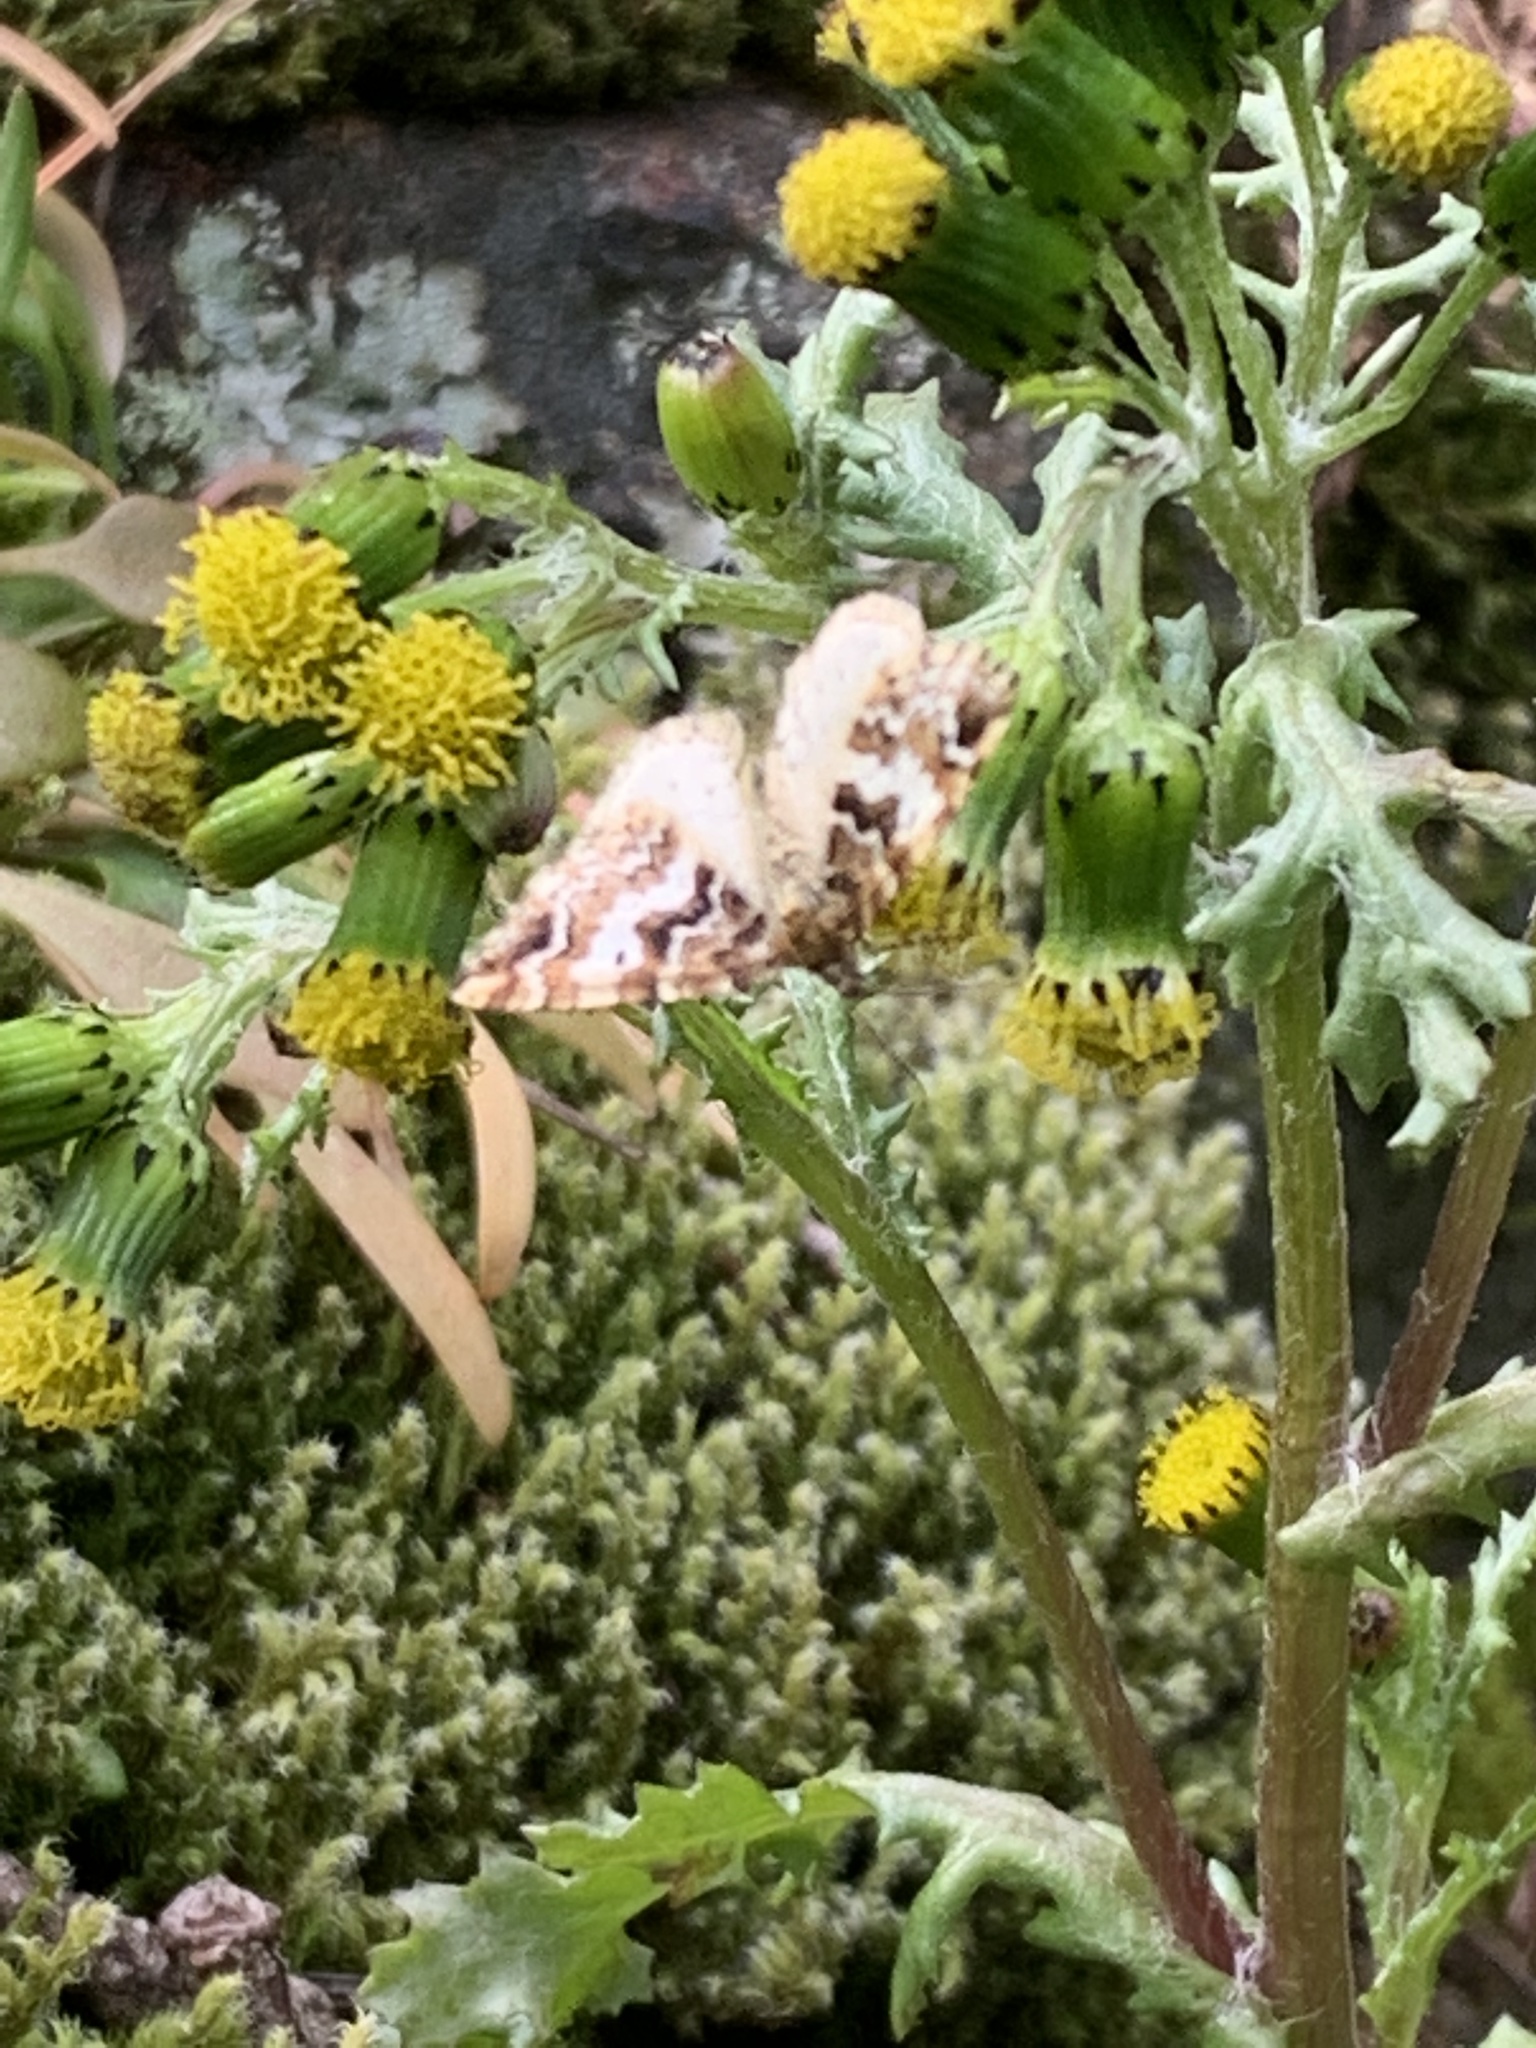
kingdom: Animalia
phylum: Arthropoda
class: Insecta
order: Lepidoptera
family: Geometridae
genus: Enchoria
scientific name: Enchoria lacteata
